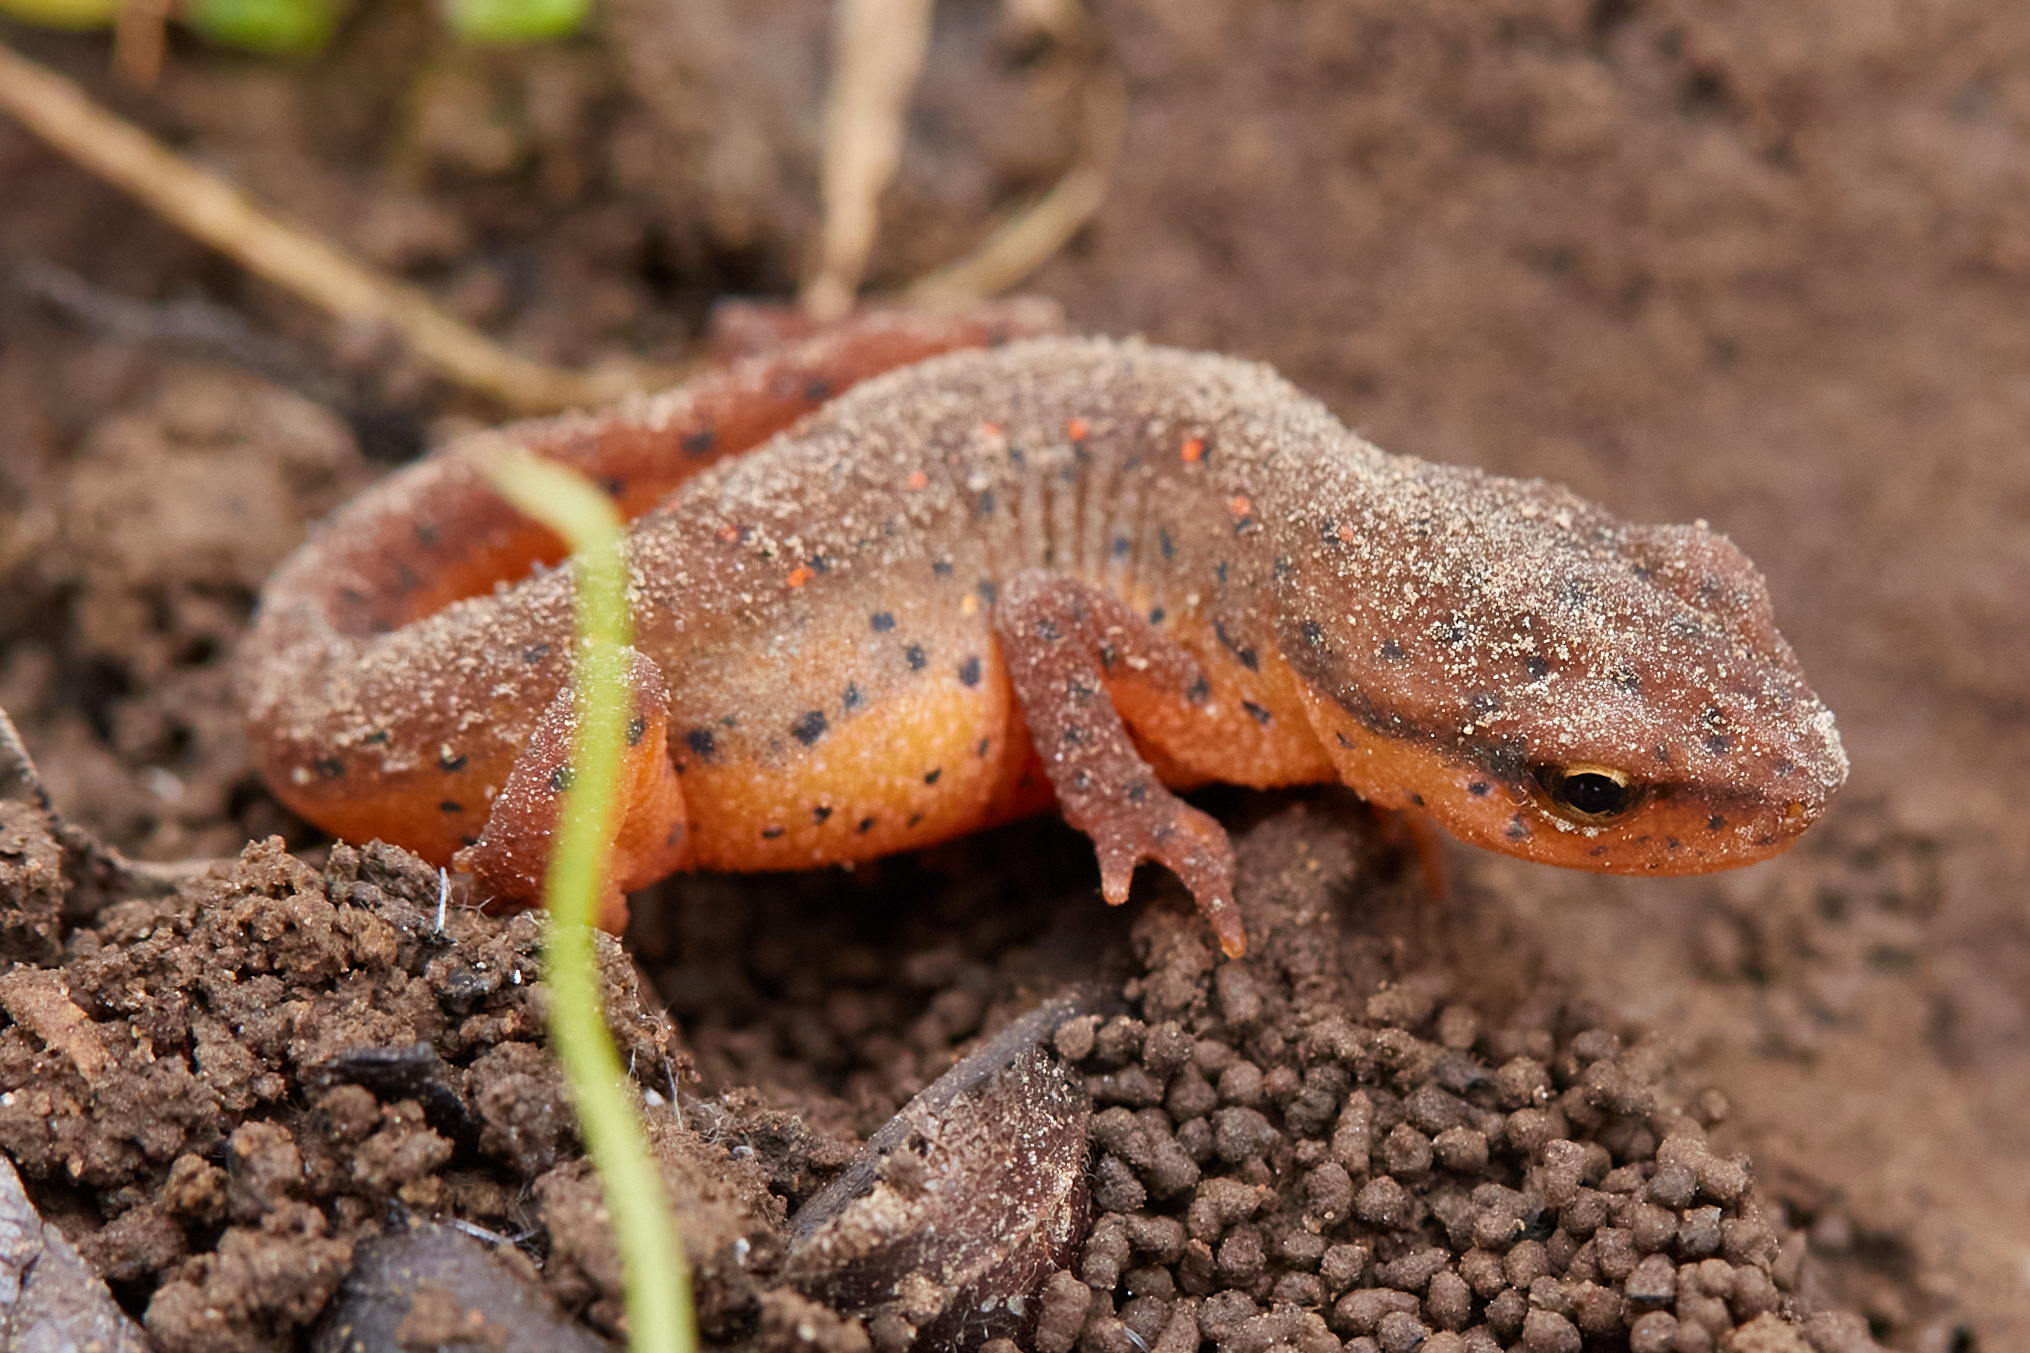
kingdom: Animalia
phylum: Chordata
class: Amphibia
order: Caudata
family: Salamandridae
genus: Notophthalmus
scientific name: Notophthalmus viridescens
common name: Eastern newt
